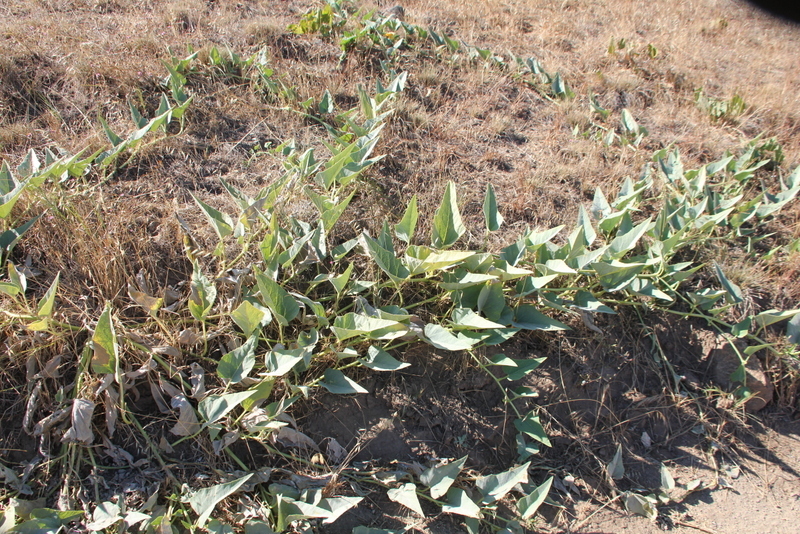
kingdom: Plantae
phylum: Tracheophyta
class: Magnoliopsida
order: Cucurbitales
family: Cucurbitaceae
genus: Cucurbita
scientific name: Cucurbita foetidissima
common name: Buffalo gourd
